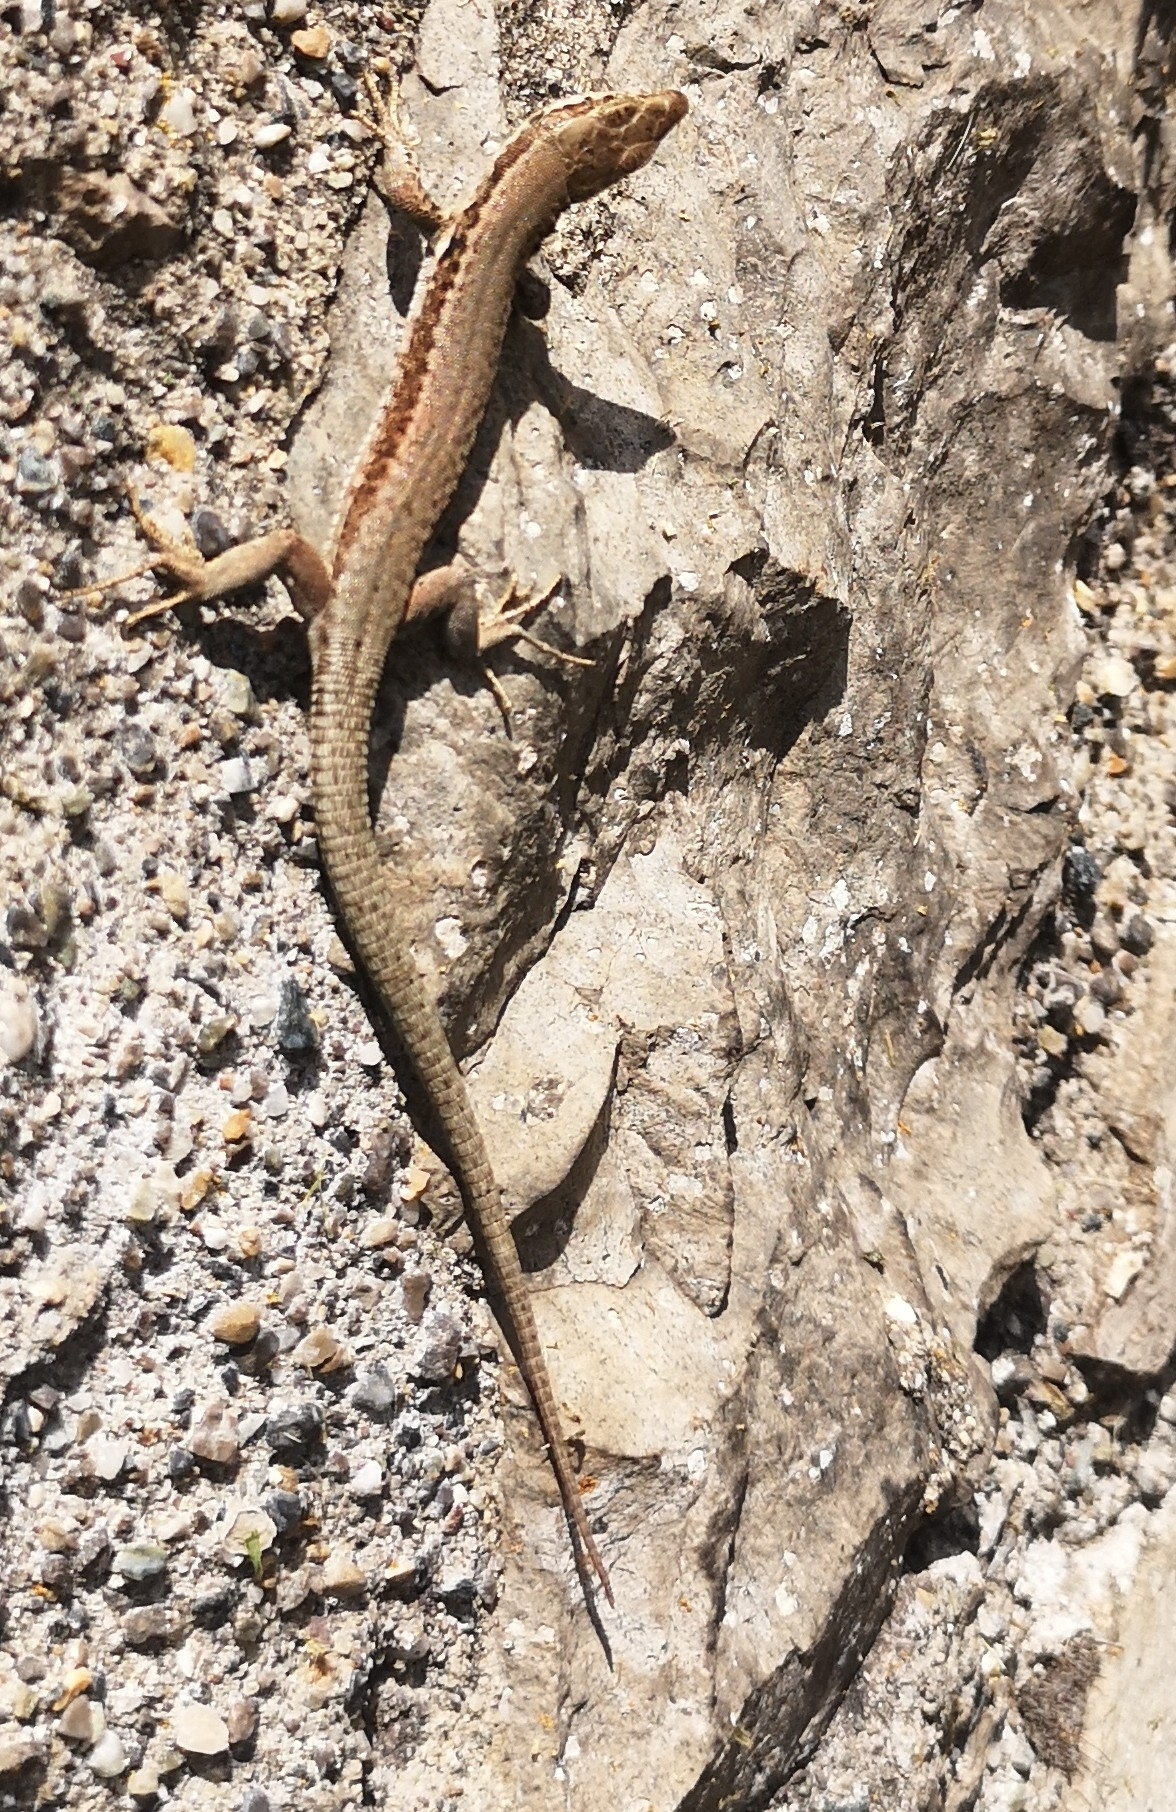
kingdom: Animalia
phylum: Chordata
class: Squamata
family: Lacertidae
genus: Podarcis
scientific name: Podarcis muralis
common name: Common wall lizard
